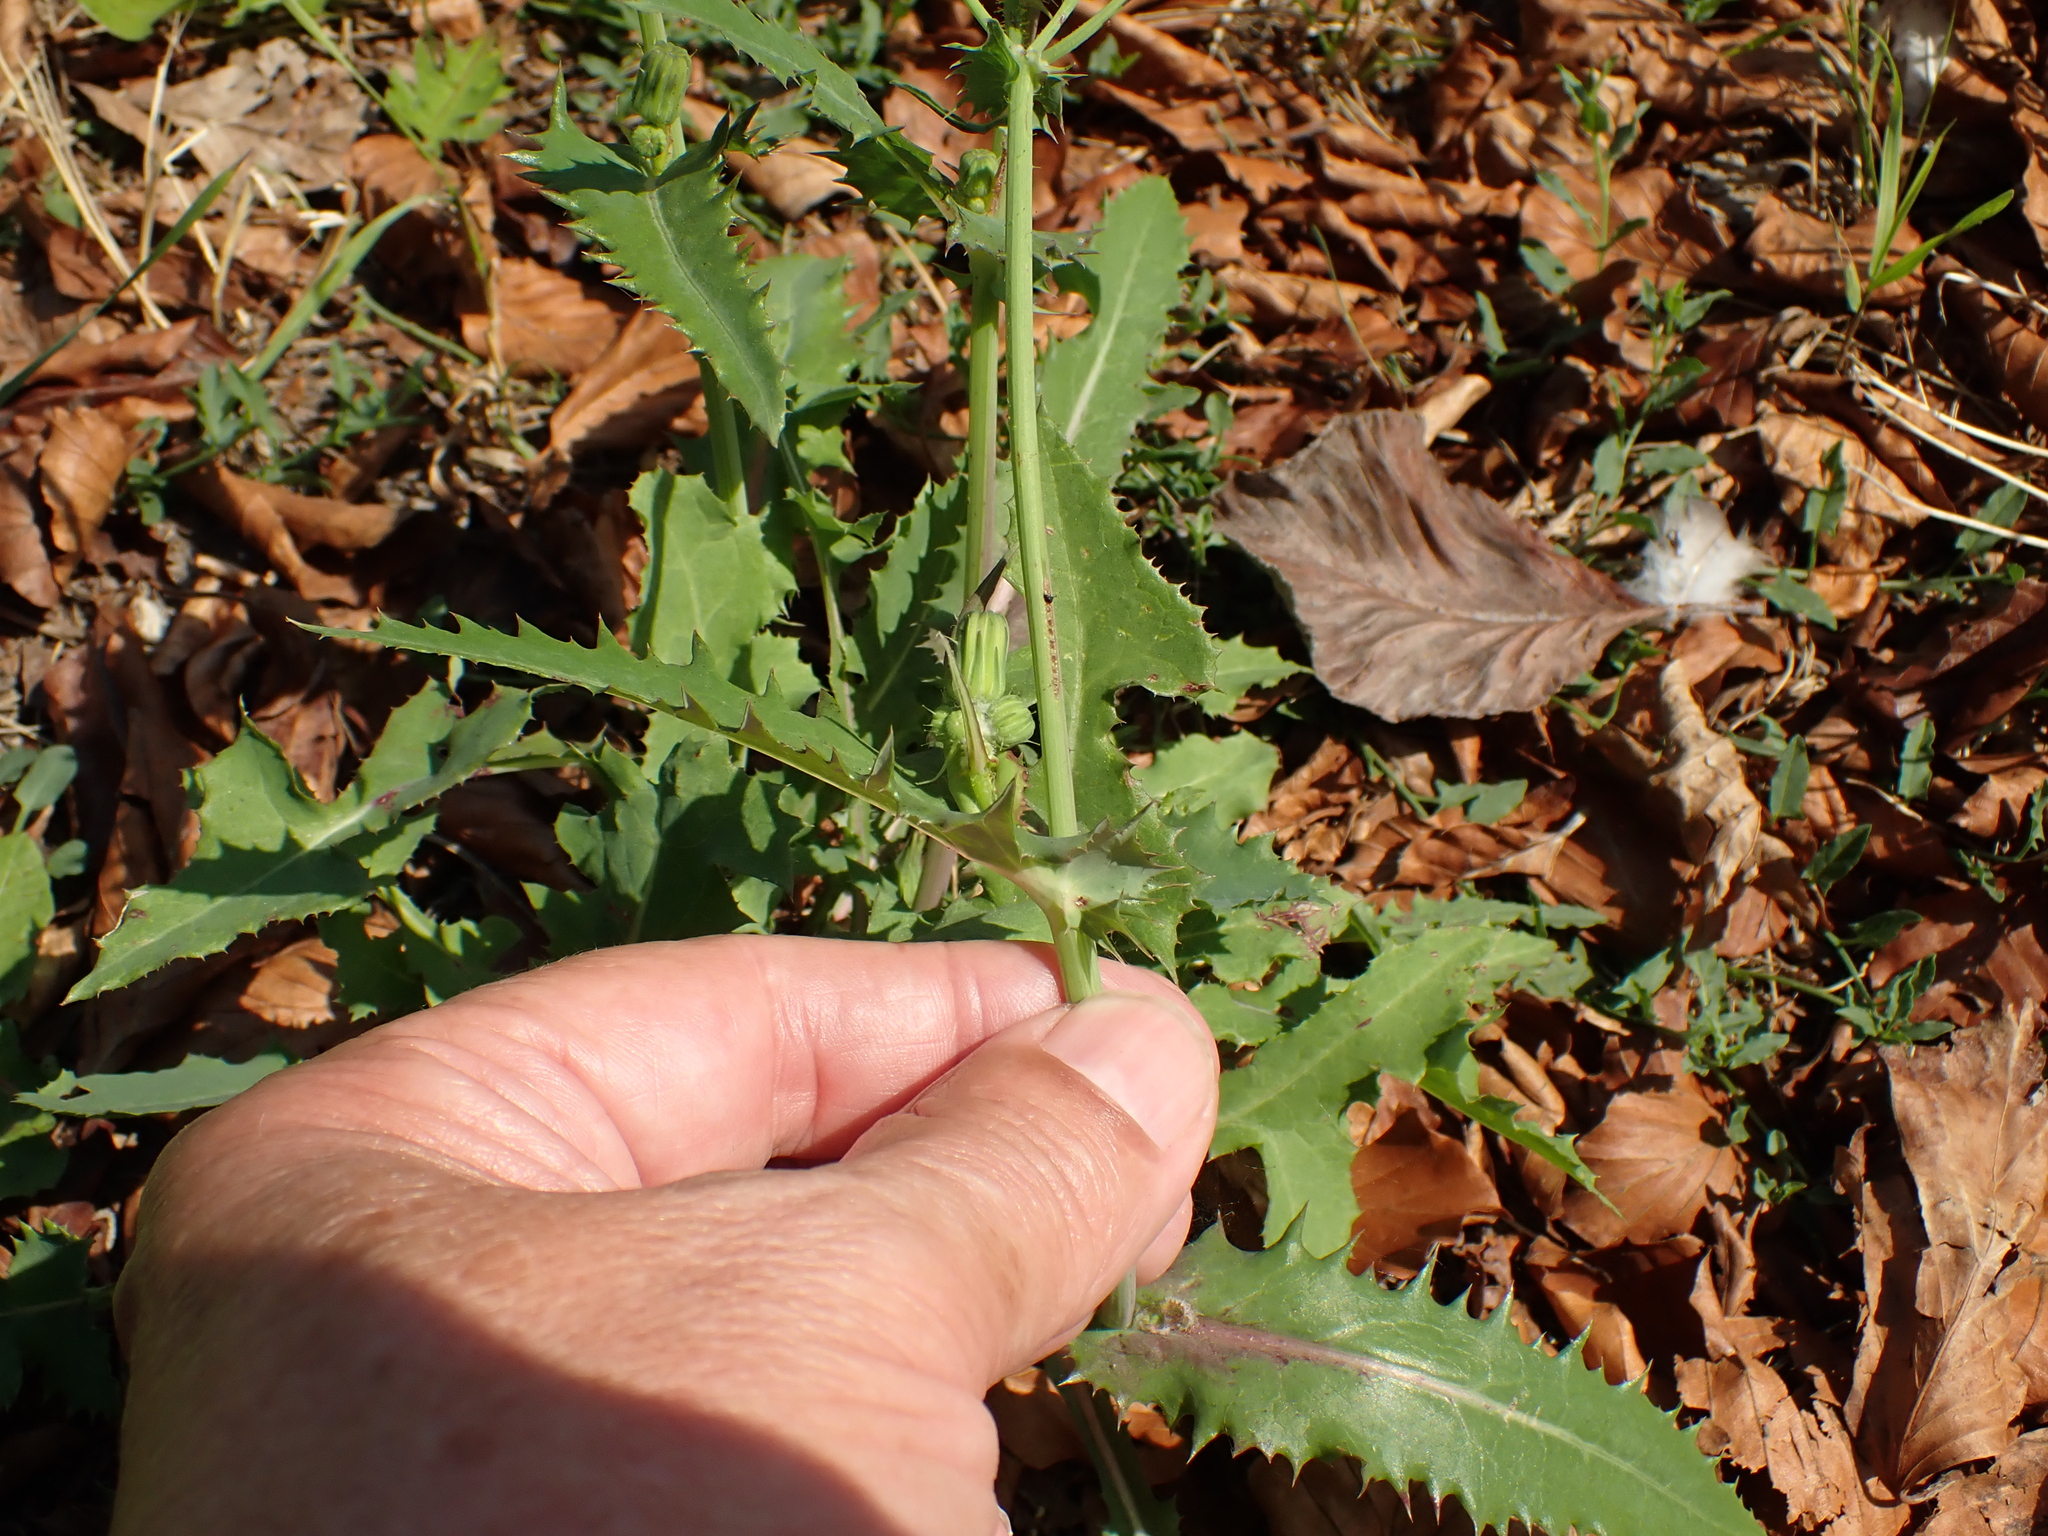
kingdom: Plantae
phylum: Tracheophyta
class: Magnoliopsida
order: Asterales
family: Asteraceae
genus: Sonchus
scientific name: Sonchus asper
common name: Prickly sow-thistle
